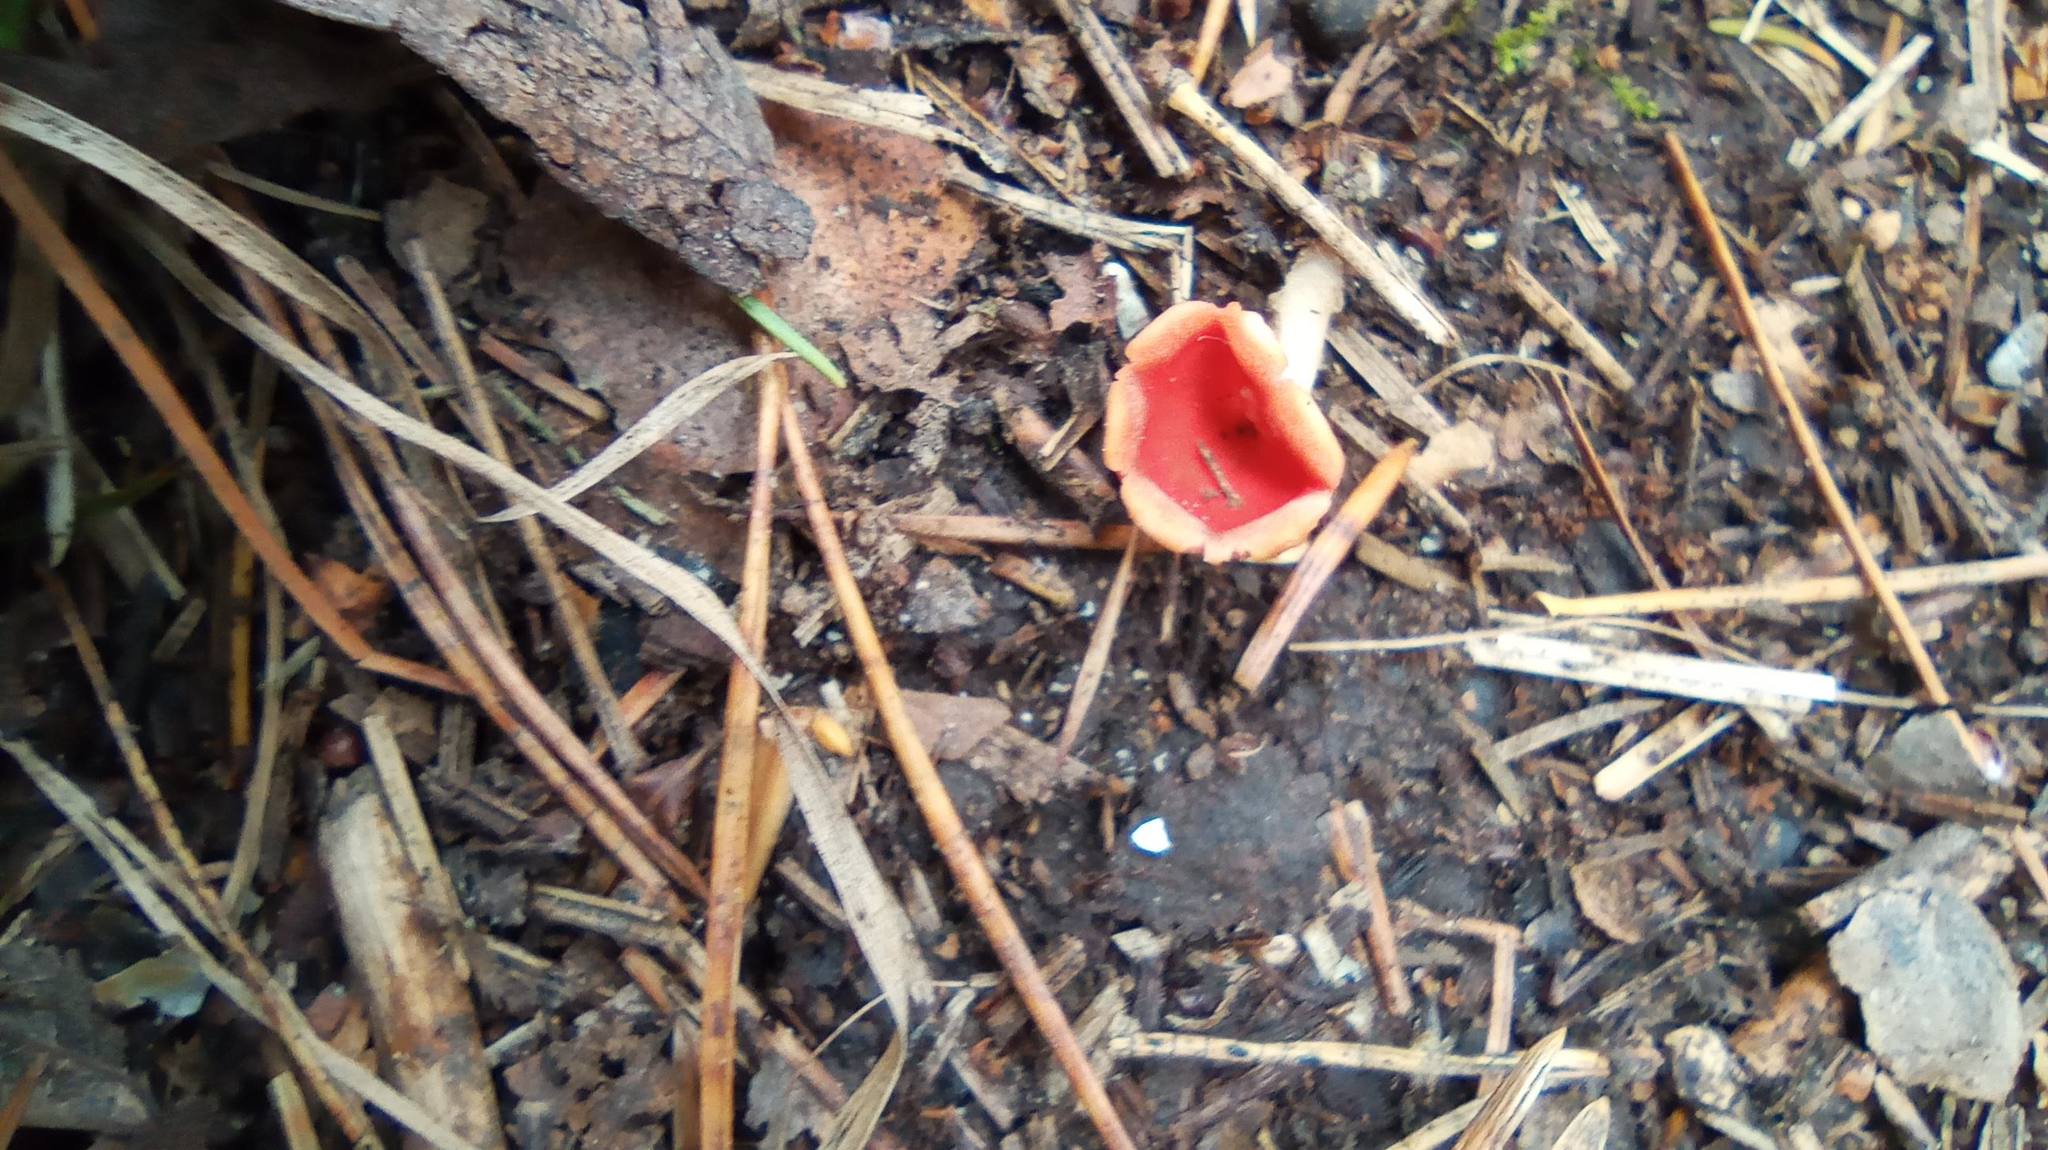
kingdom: Fungi
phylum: Ascomycota
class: Pezizomycetes
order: Pezizales
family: Sarcoscyphaceae
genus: Microstoma
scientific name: Microstoma protractum
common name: Rosy goblet
